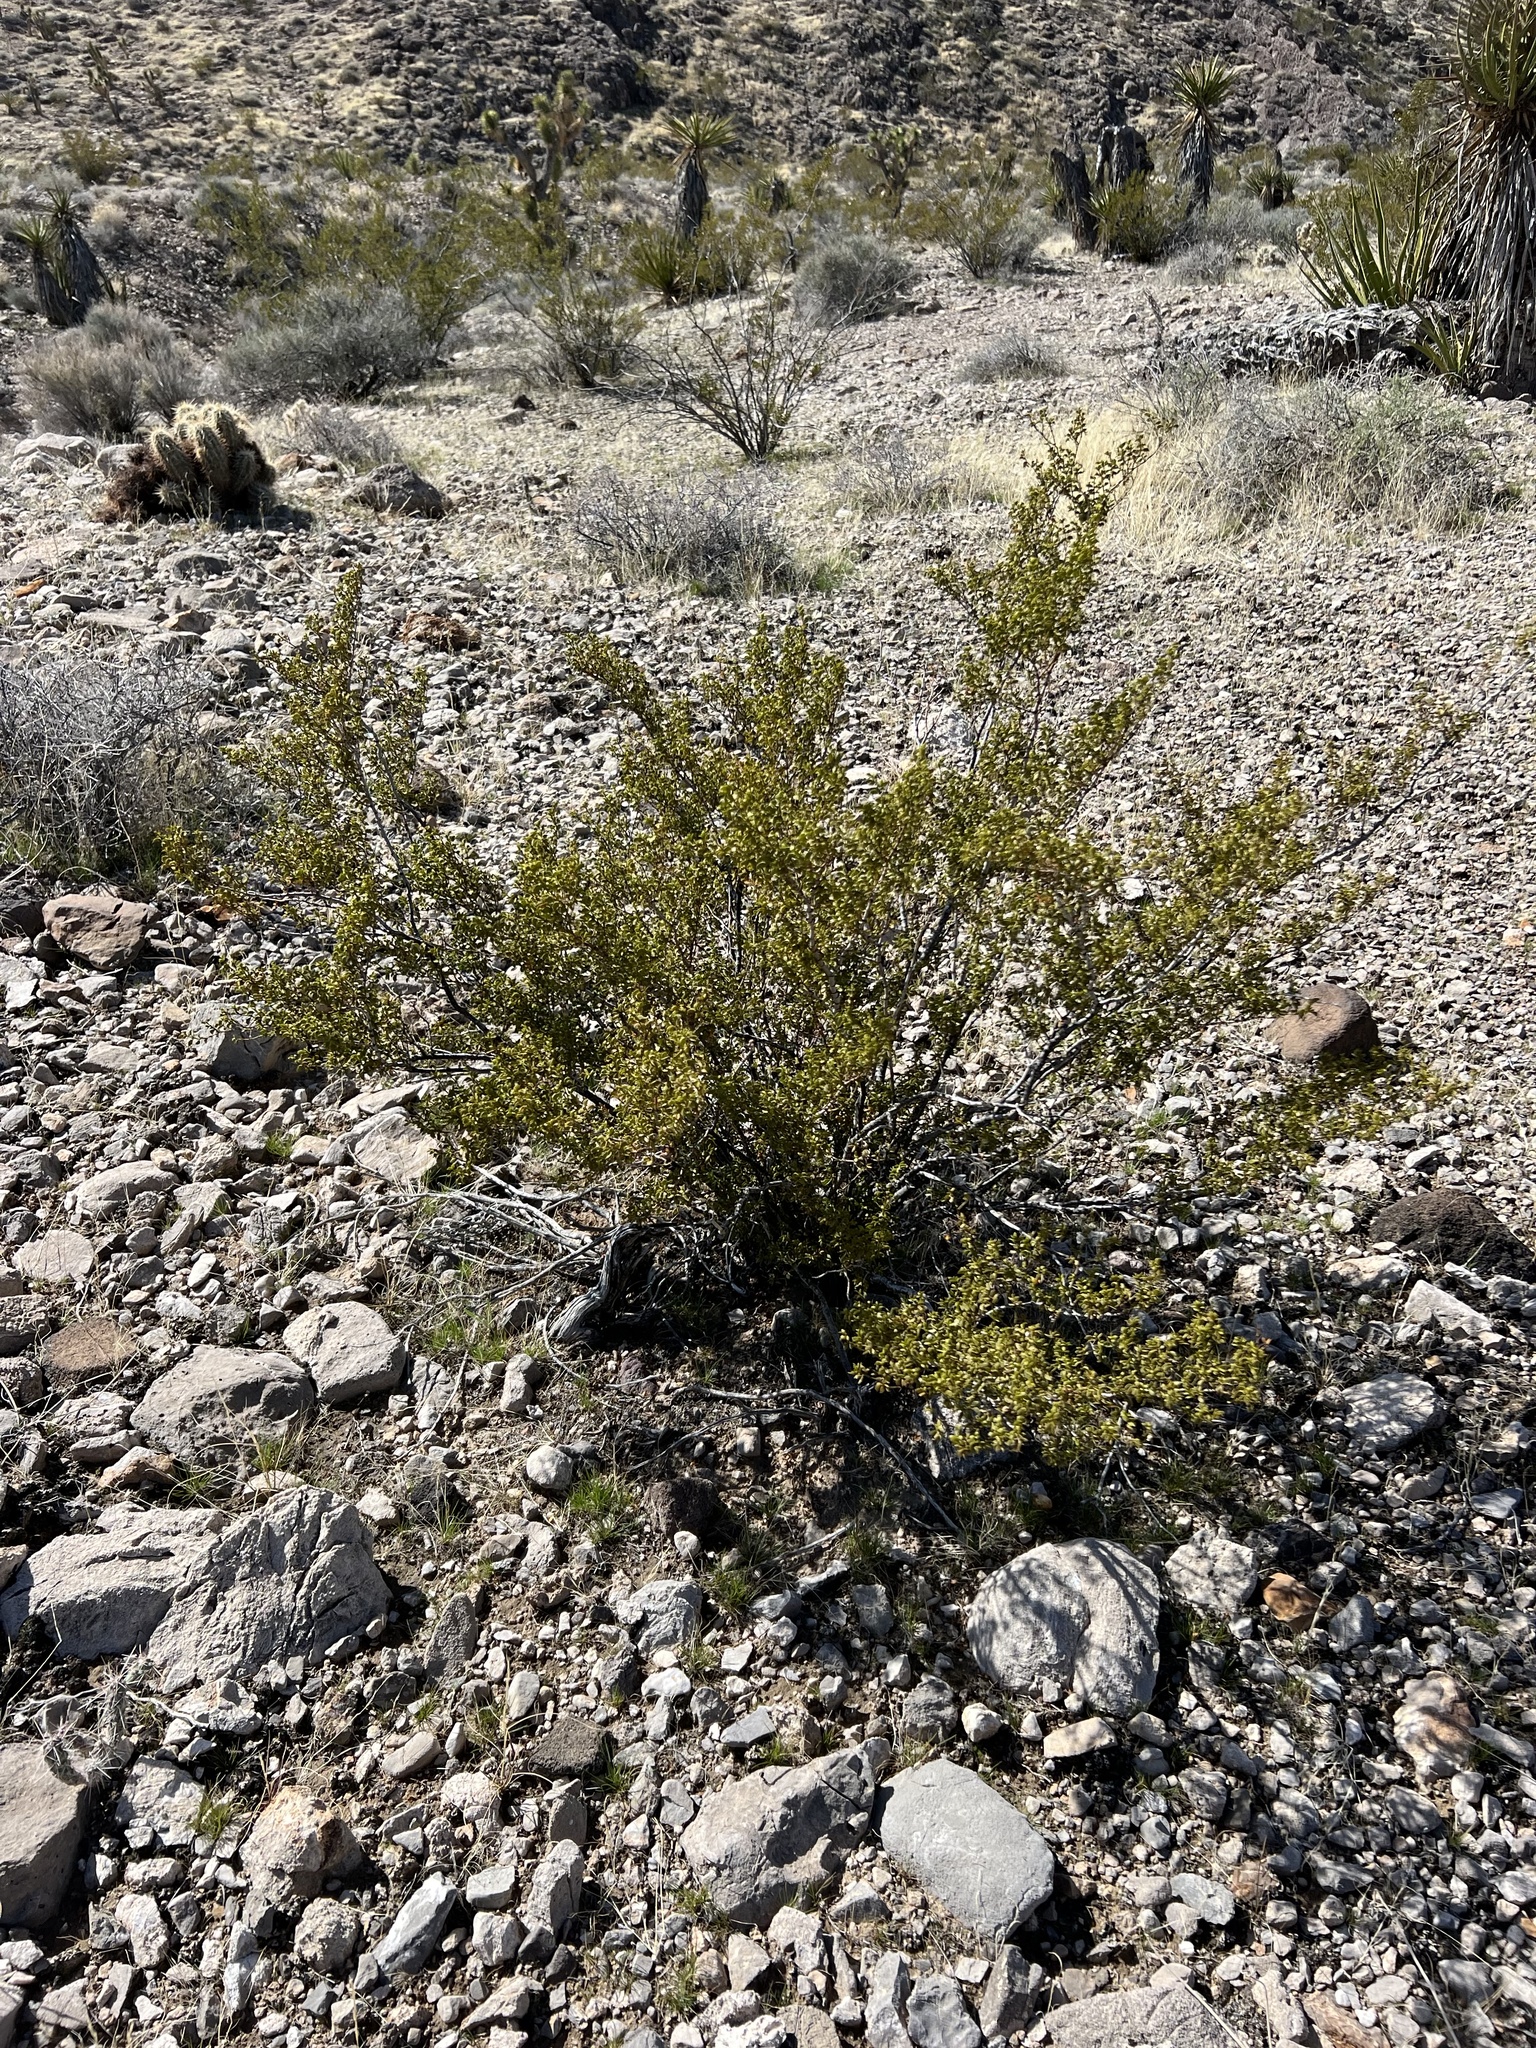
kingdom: Plantae
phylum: Tracheophyta
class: Magnoliopsida
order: Zygophyllales
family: Zygophyllaceae
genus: Larrea
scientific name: Larrea tridentata
